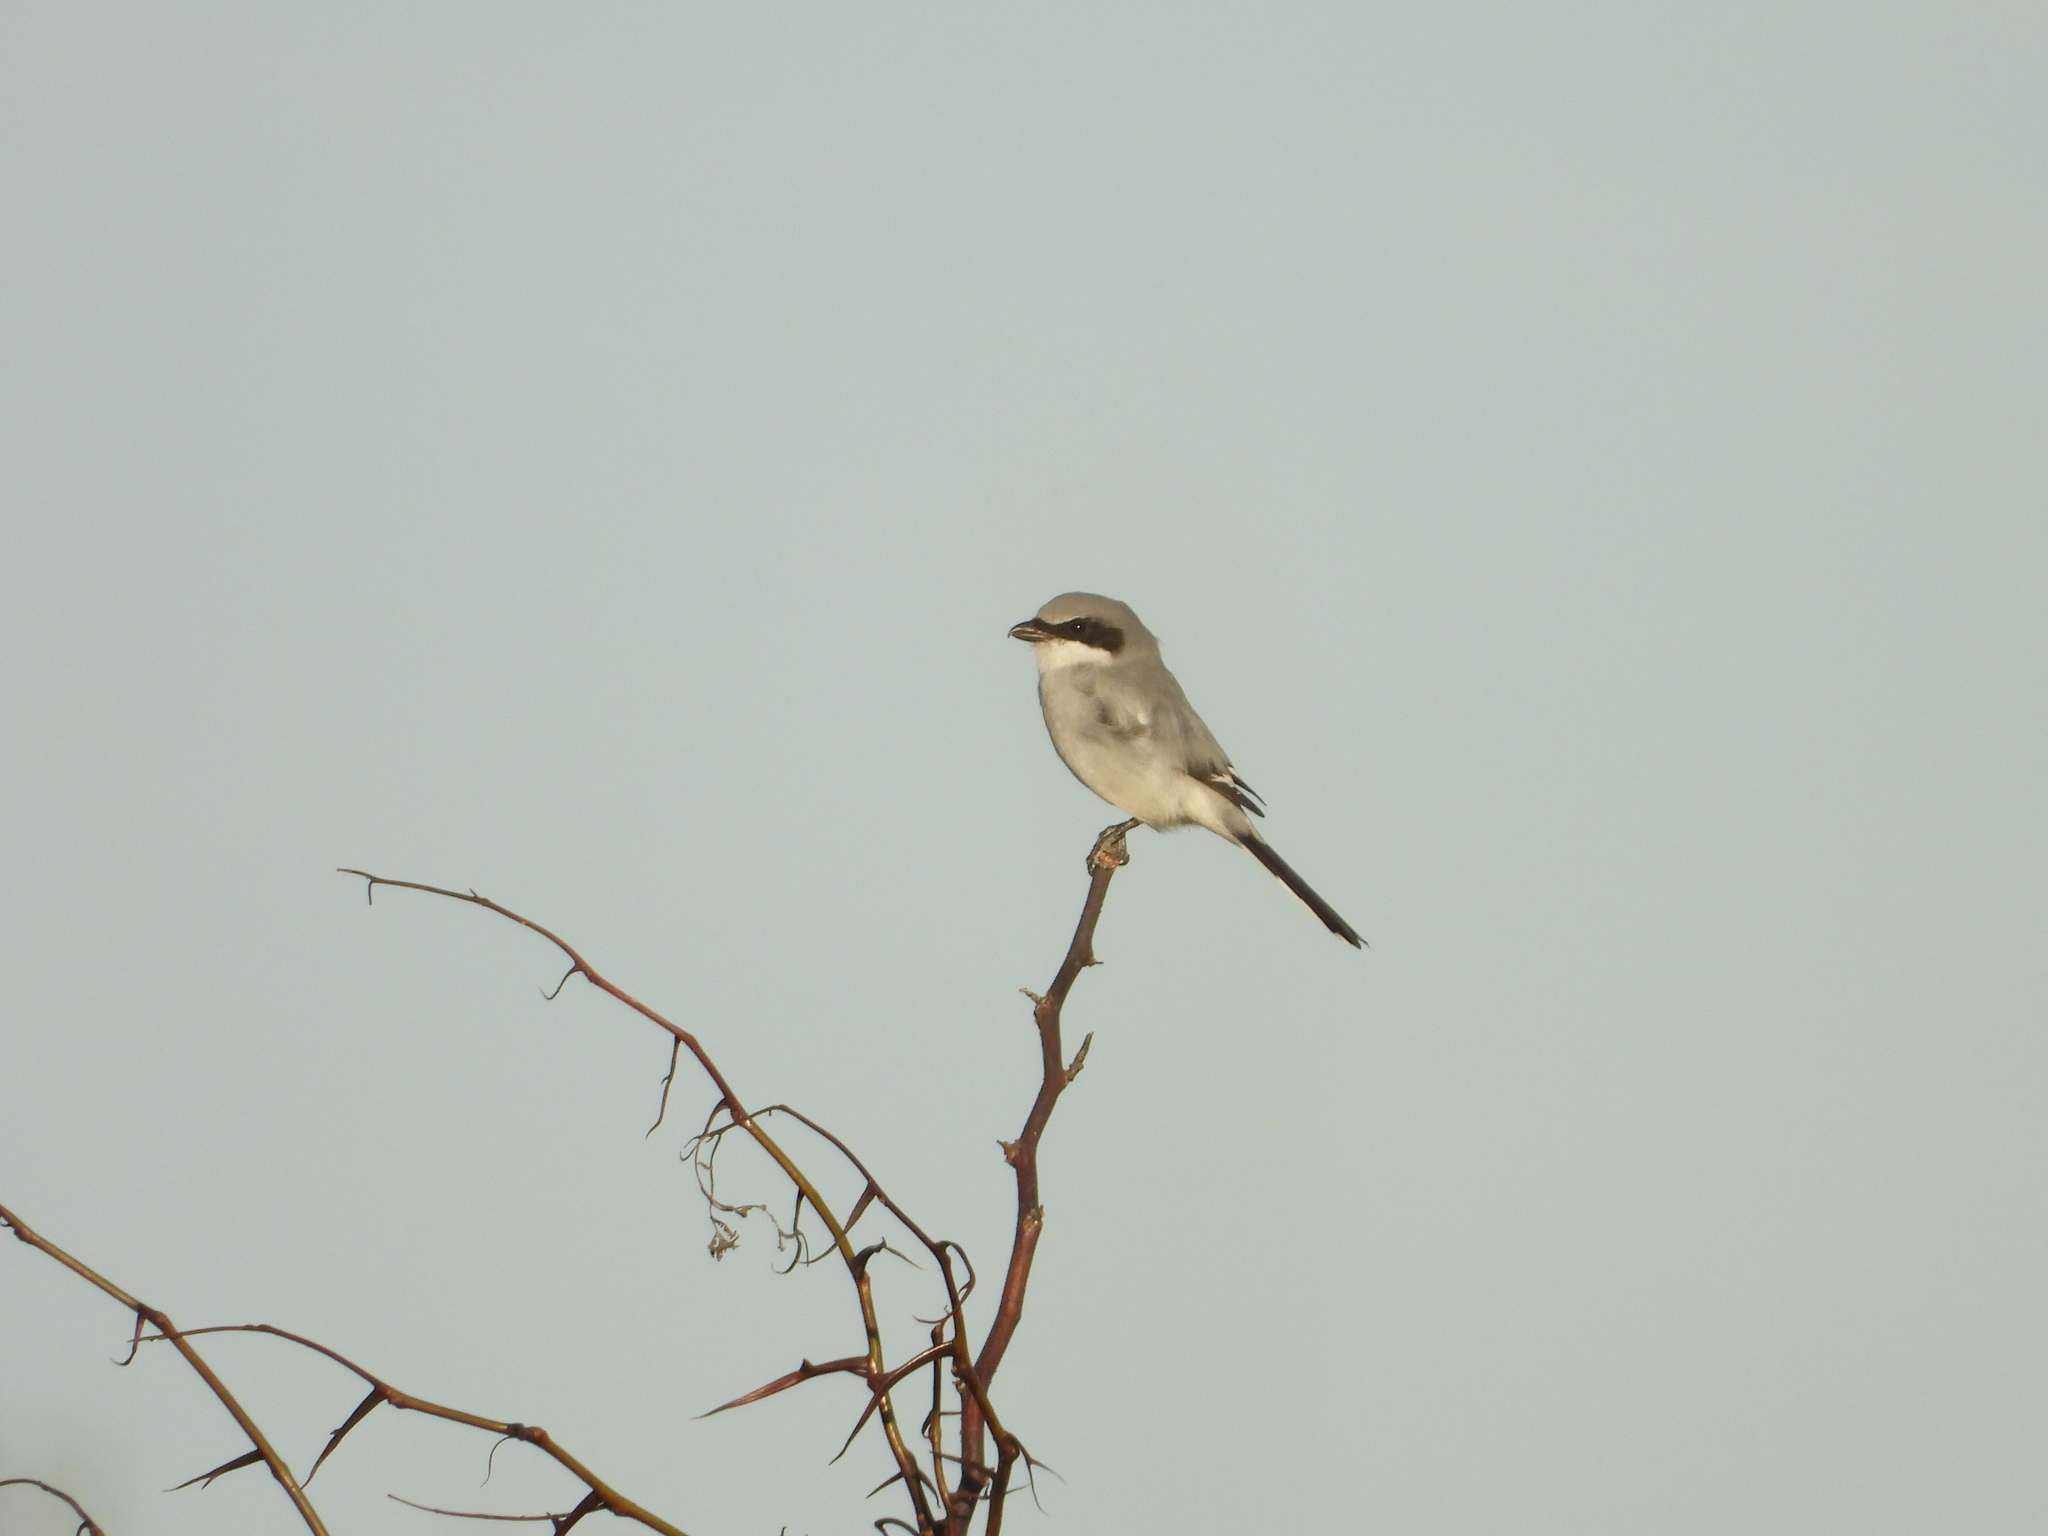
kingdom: Animalia
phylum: Chordata
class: Aves
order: Passeriformes
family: Laniidae
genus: Lanius
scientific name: Lanius ludovicianus
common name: Loggerhead shrike
